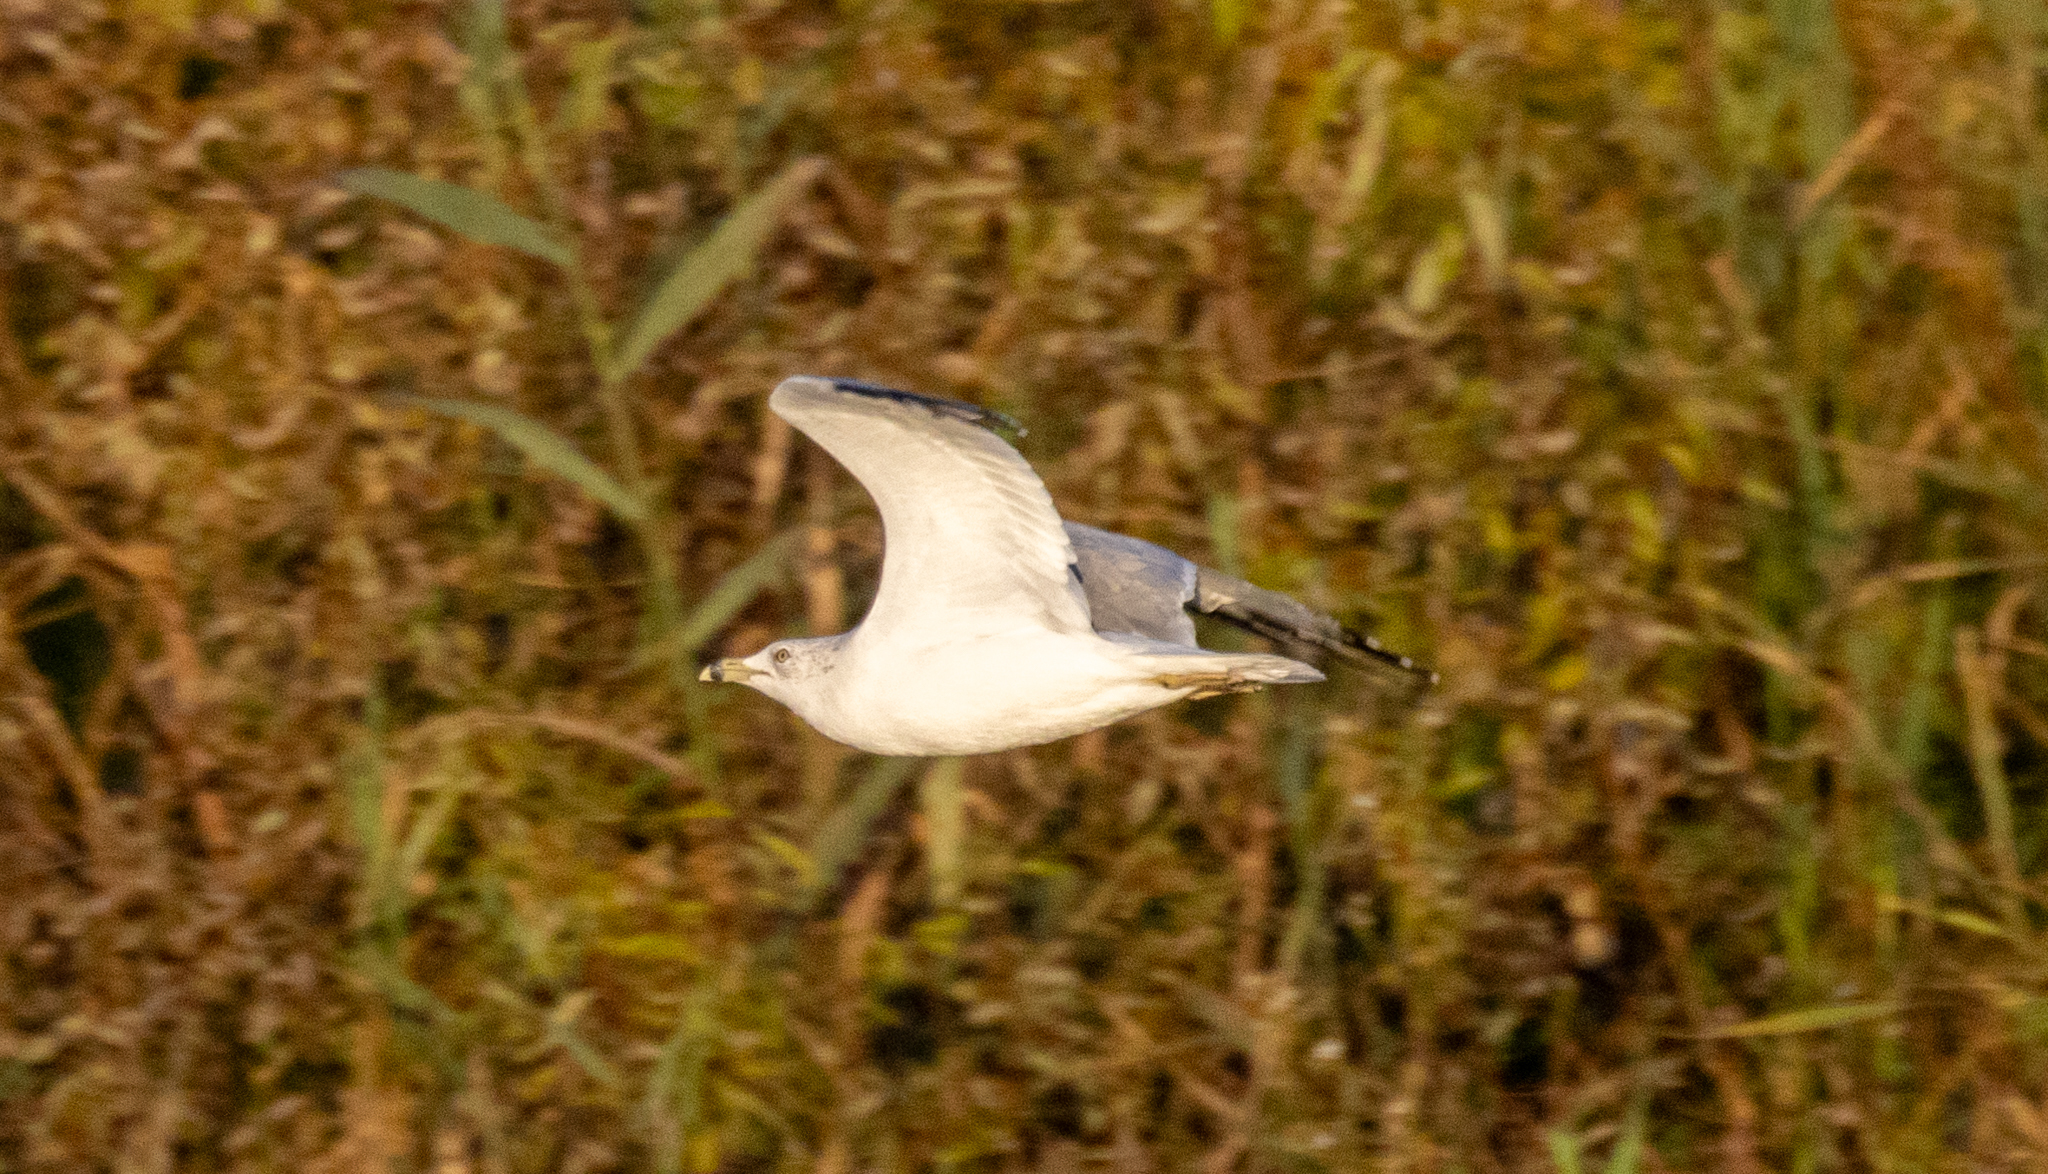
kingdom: Animalia
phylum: Chordata
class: Aves
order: Charadriiformes
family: Laridae
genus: Larus
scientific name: Larus delawarensis
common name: Ring-billed gull
